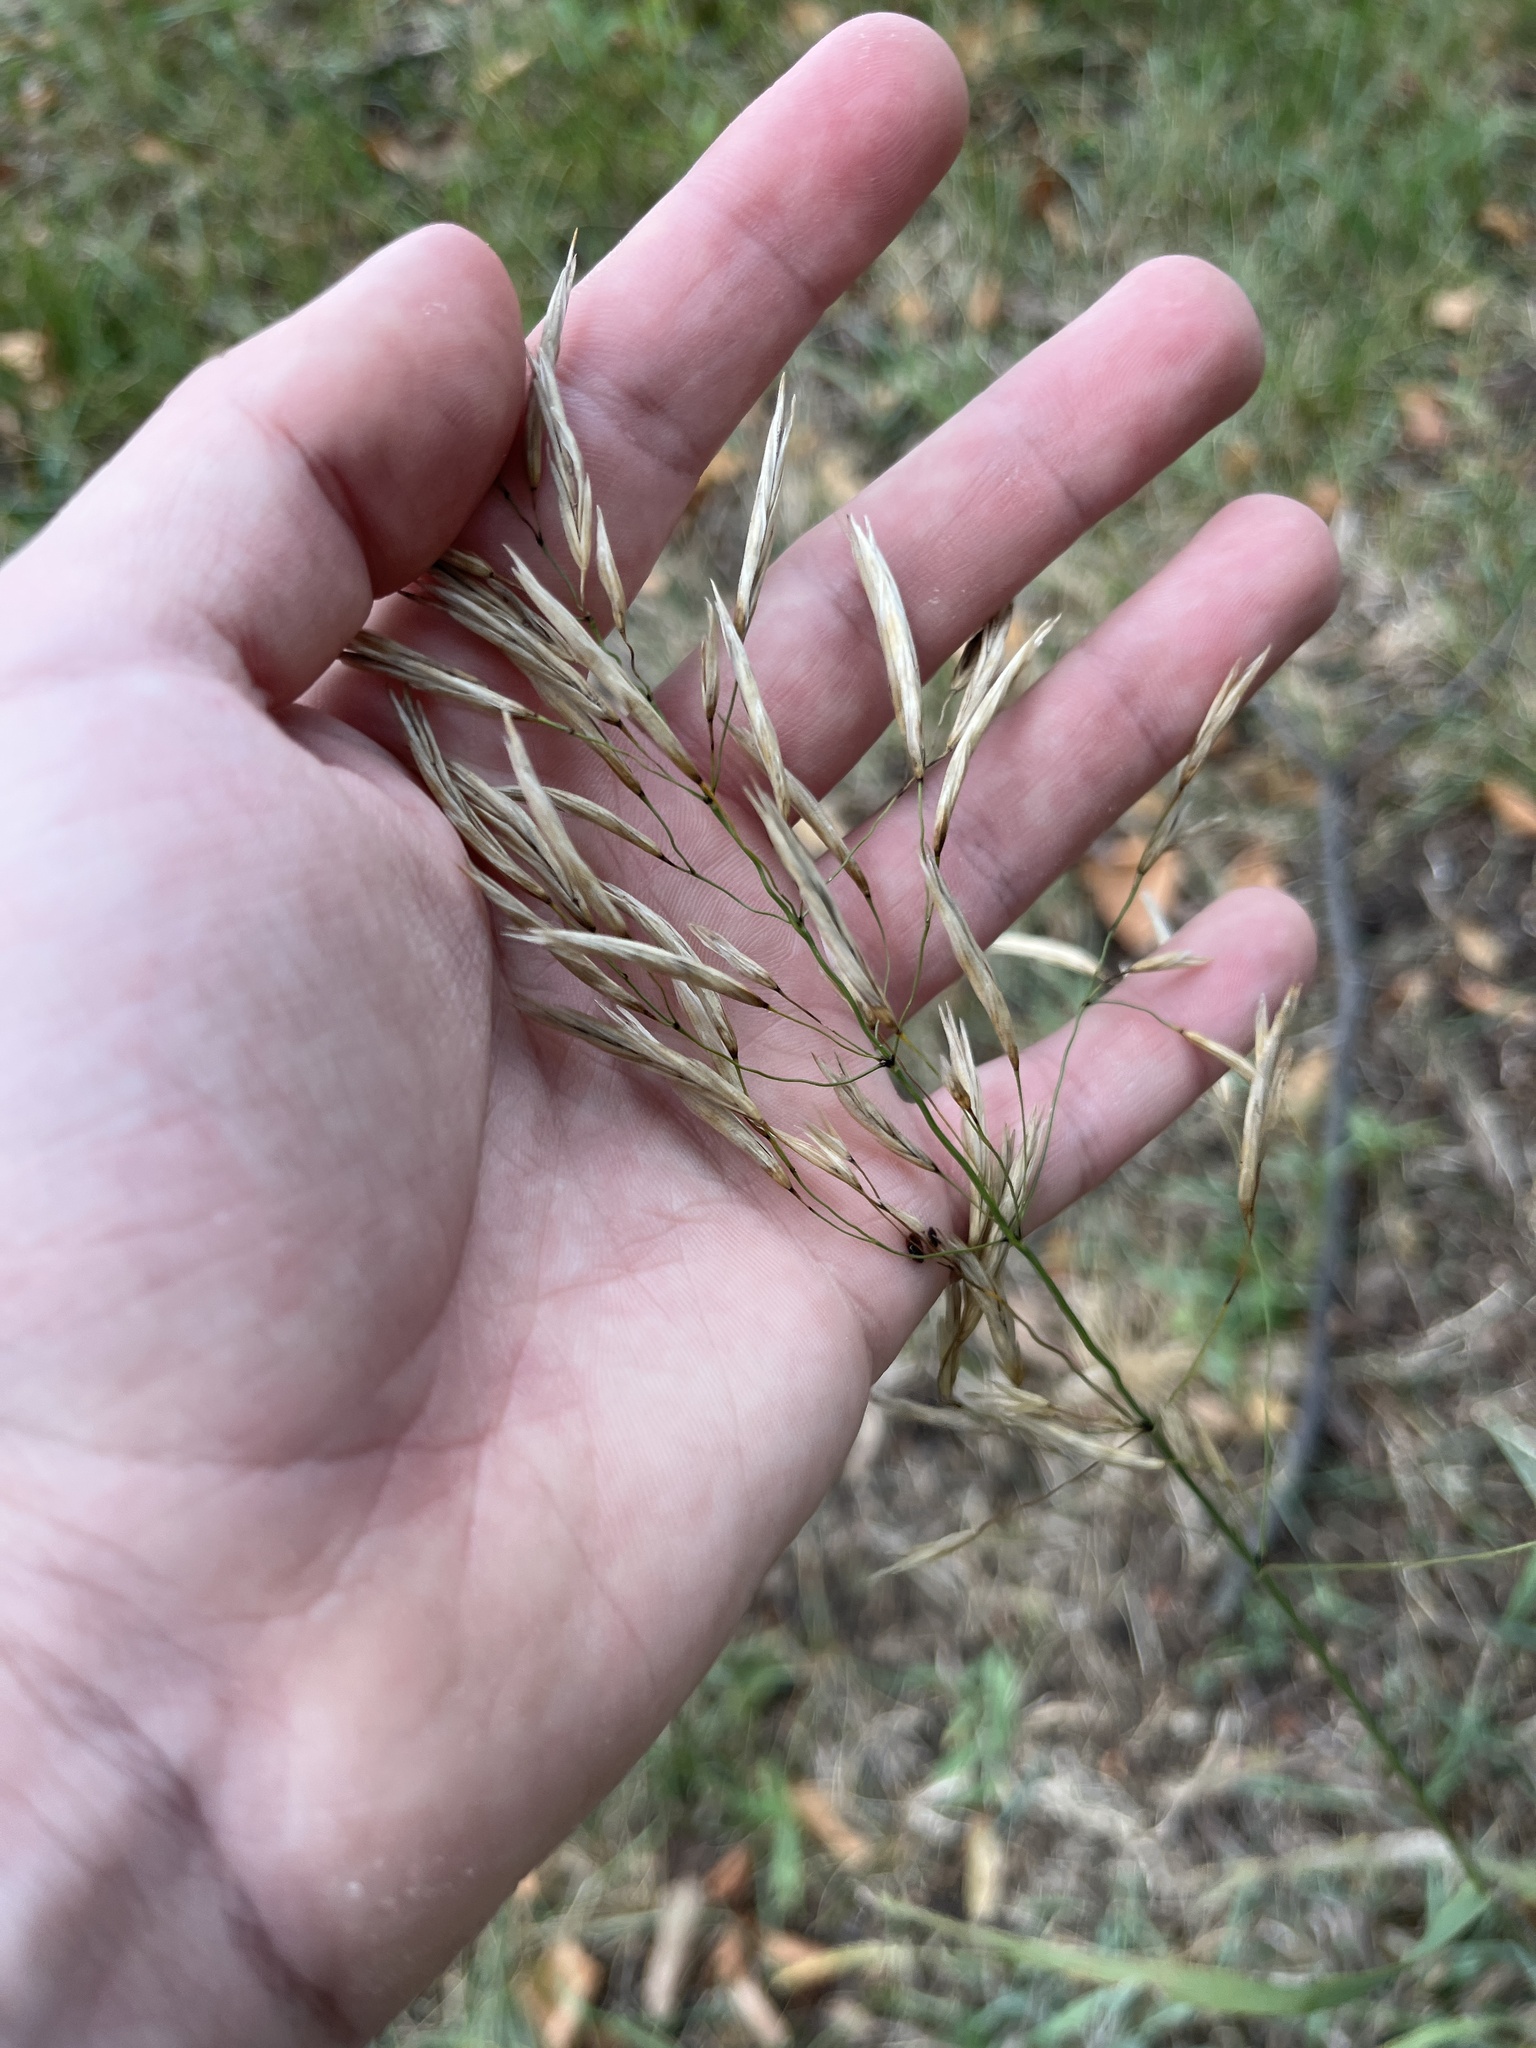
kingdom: Plantae
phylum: Tracheophyta
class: Liliopsida
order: Poales
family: Poaceae
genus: Bromus
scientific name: Bromus inermis
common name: Smooth brome
